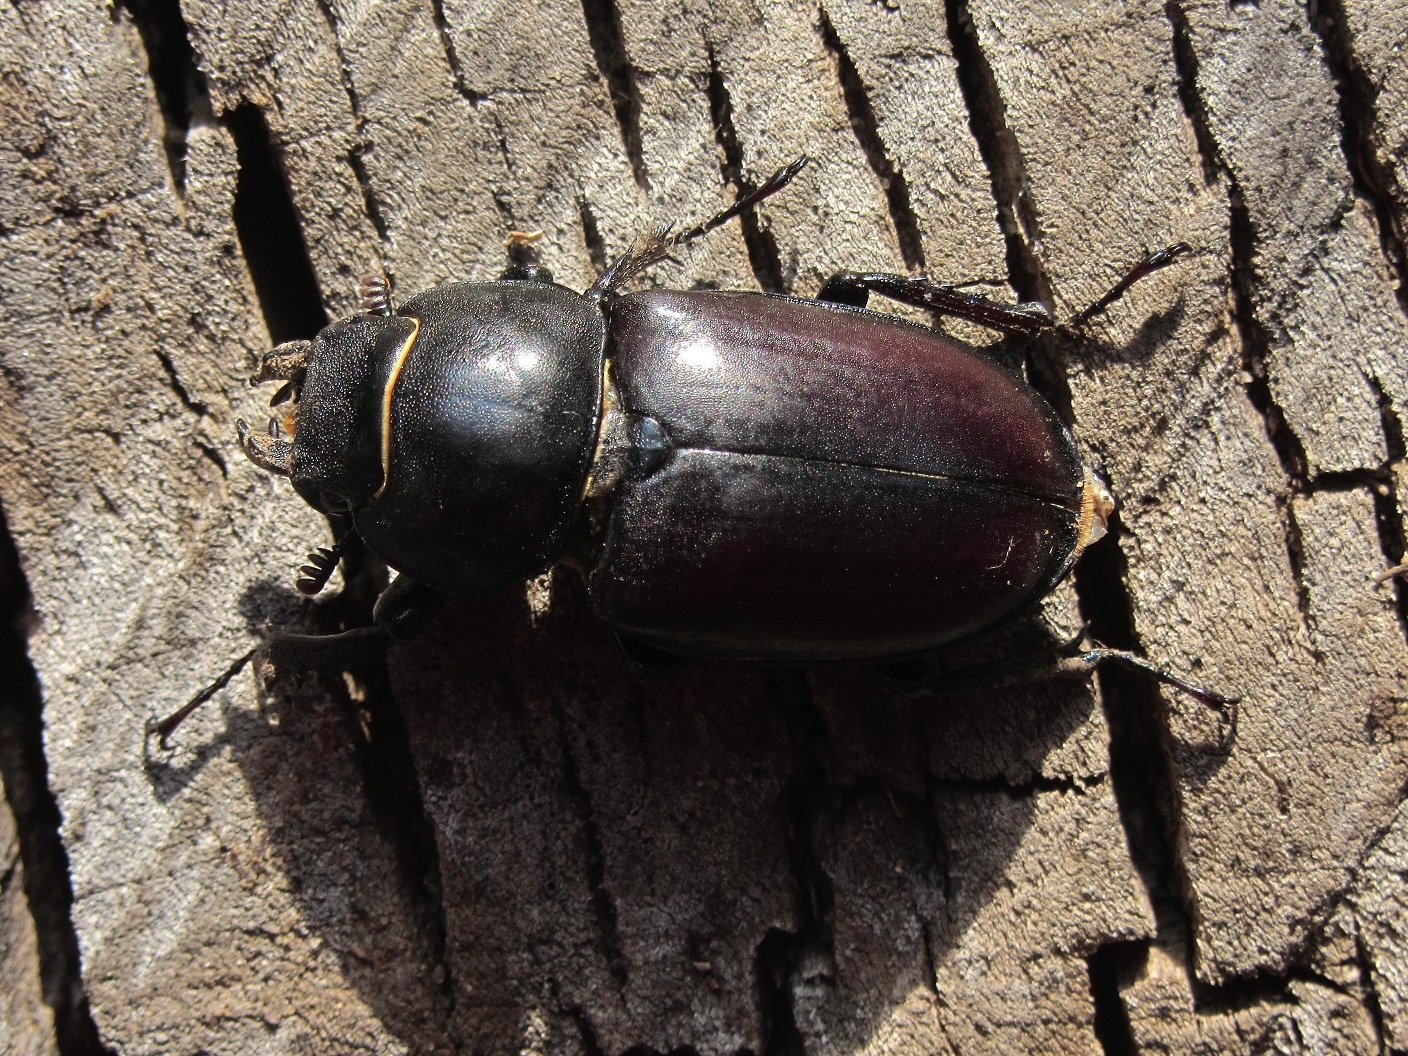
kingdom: Animalia
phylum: Arthropoda
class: Insecta
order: Coleoptera
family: Lucanidae
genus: Lucanus
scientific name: Lucanus cervus
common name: Stag beetle
